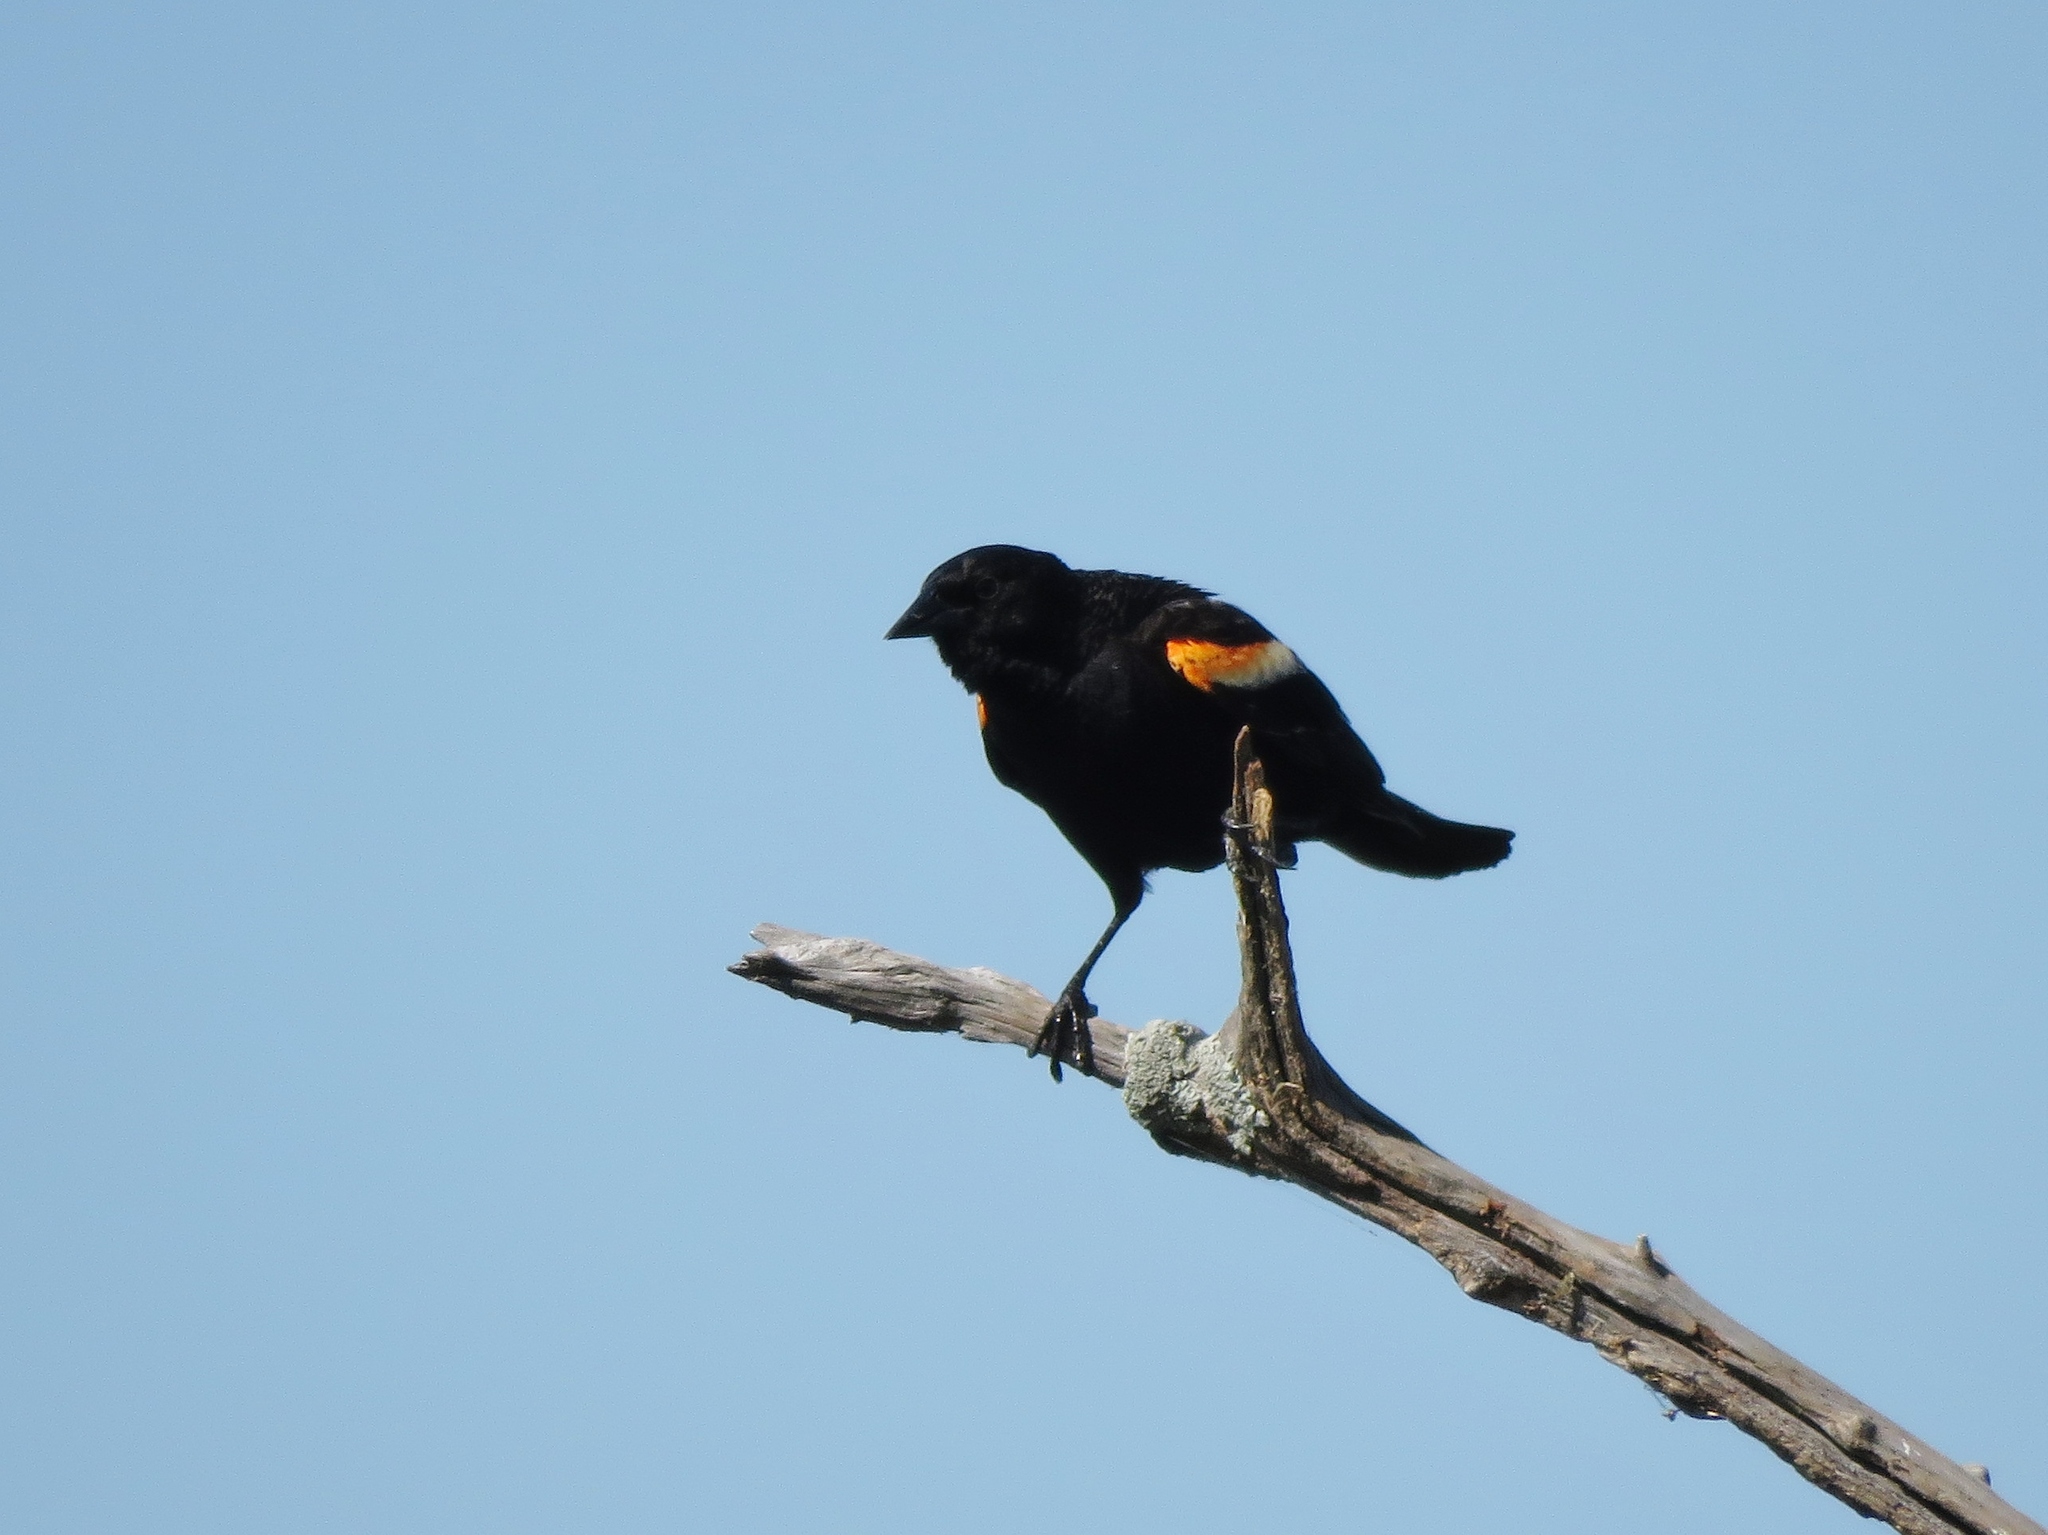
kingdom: Animalia
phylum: Chordata
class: Aves
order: Passeriformes
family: Icteridae
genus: Agelaius
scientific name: Agelaius phoeniceus
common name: Red-winged blackbird
